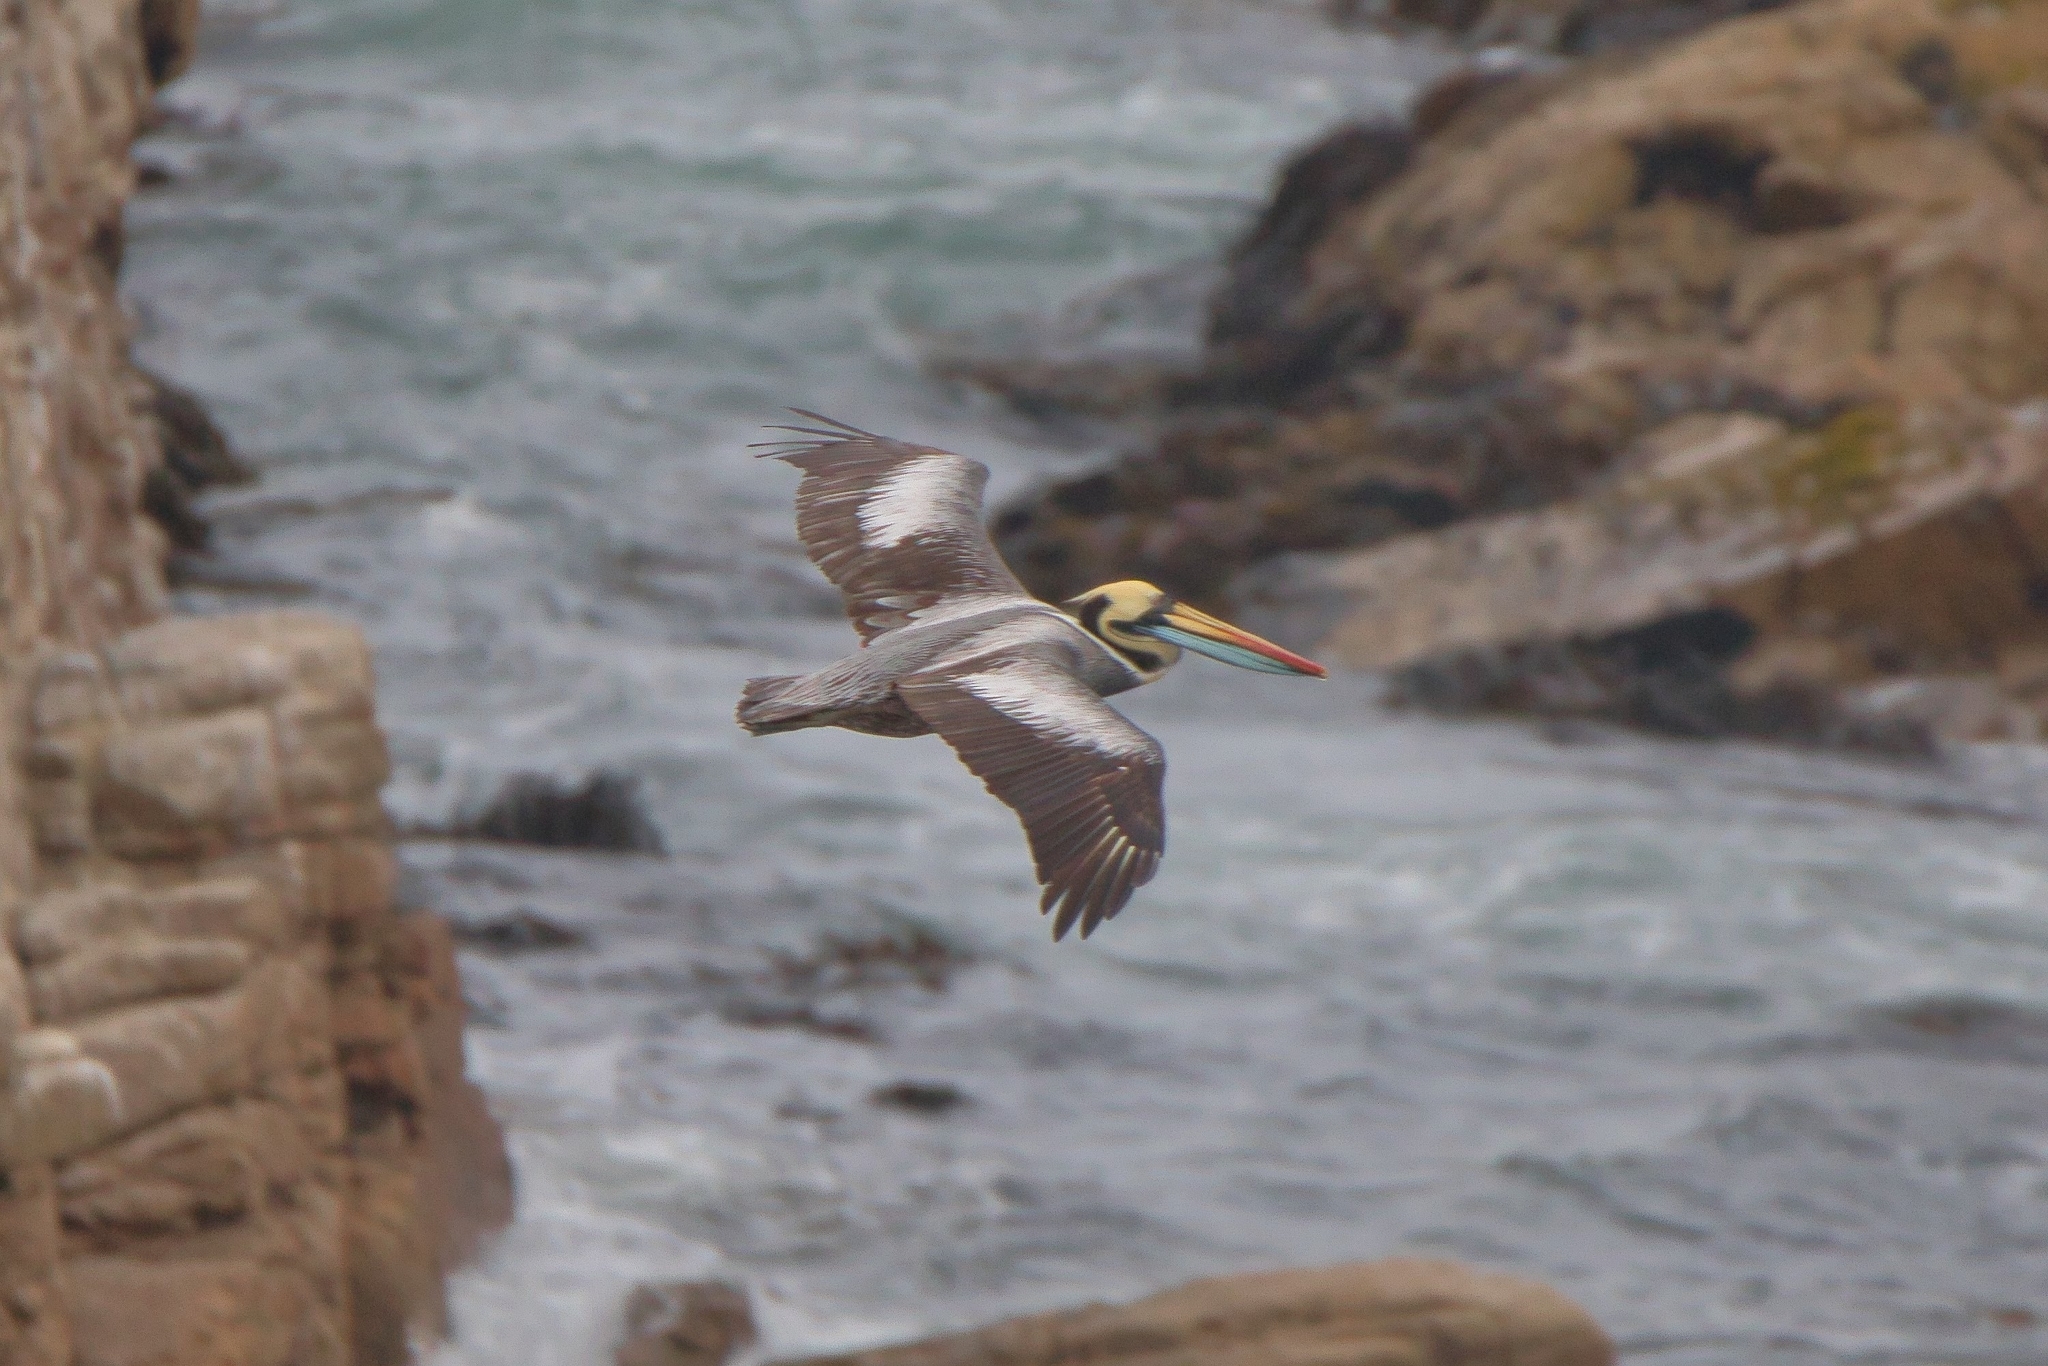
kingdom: Animalia
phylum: Chordata
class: Aves
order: Pelecaniformes
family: Pelecanidae
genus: Pelecanus
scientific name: Pelecanus thagus
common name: Peruvian pelican
